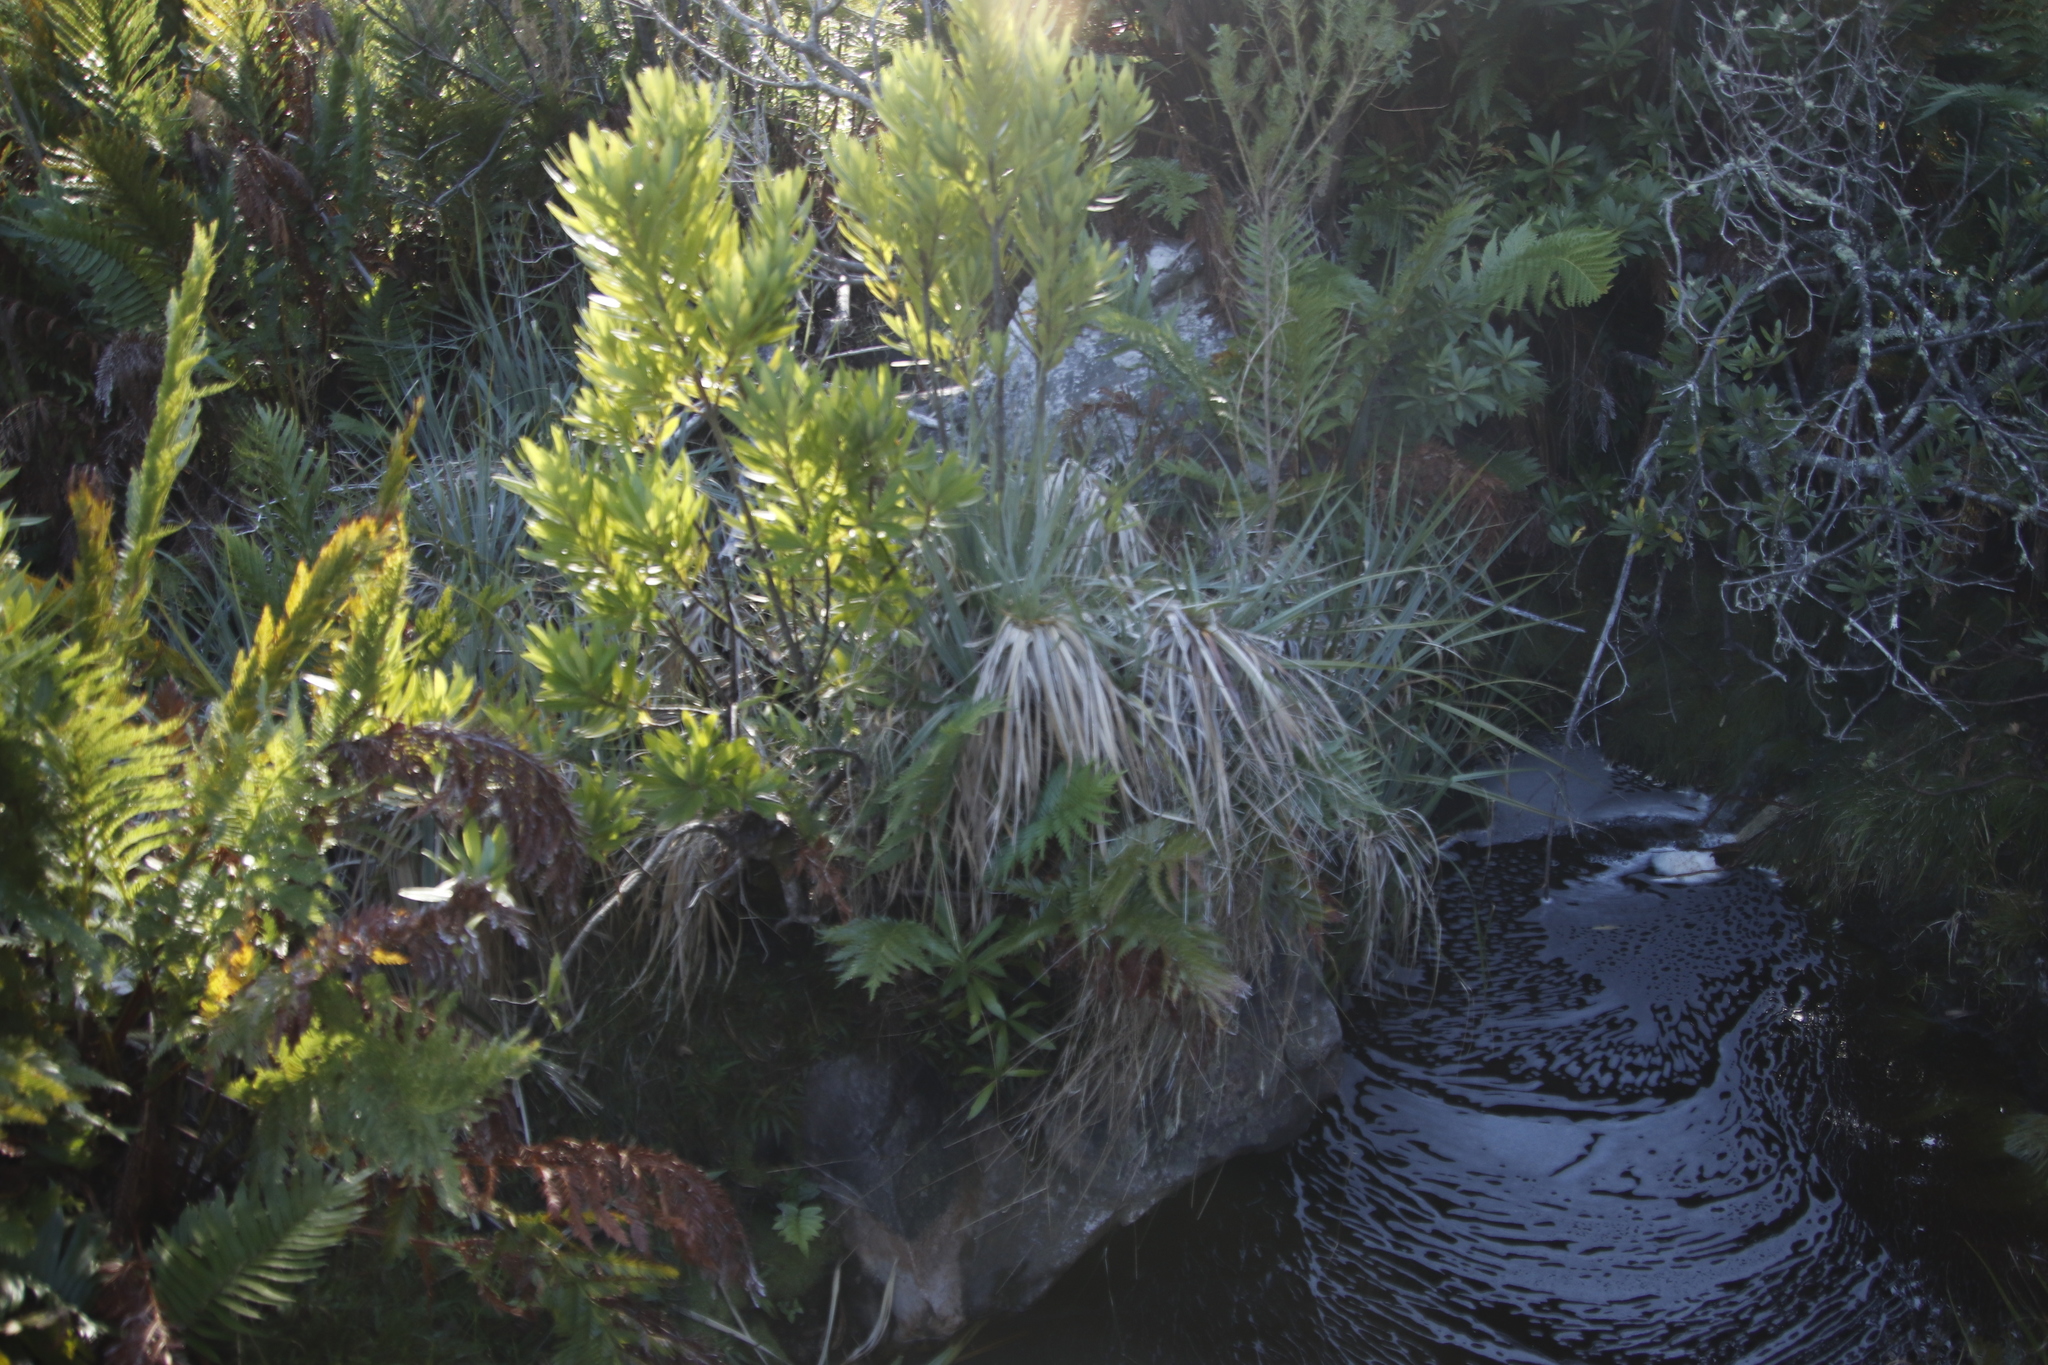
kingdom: Plantae
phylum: Tracheophyta
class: Polypodiopsida
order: Osmundales
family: Osmundaceae
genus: Todea
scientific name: Todea barbara
